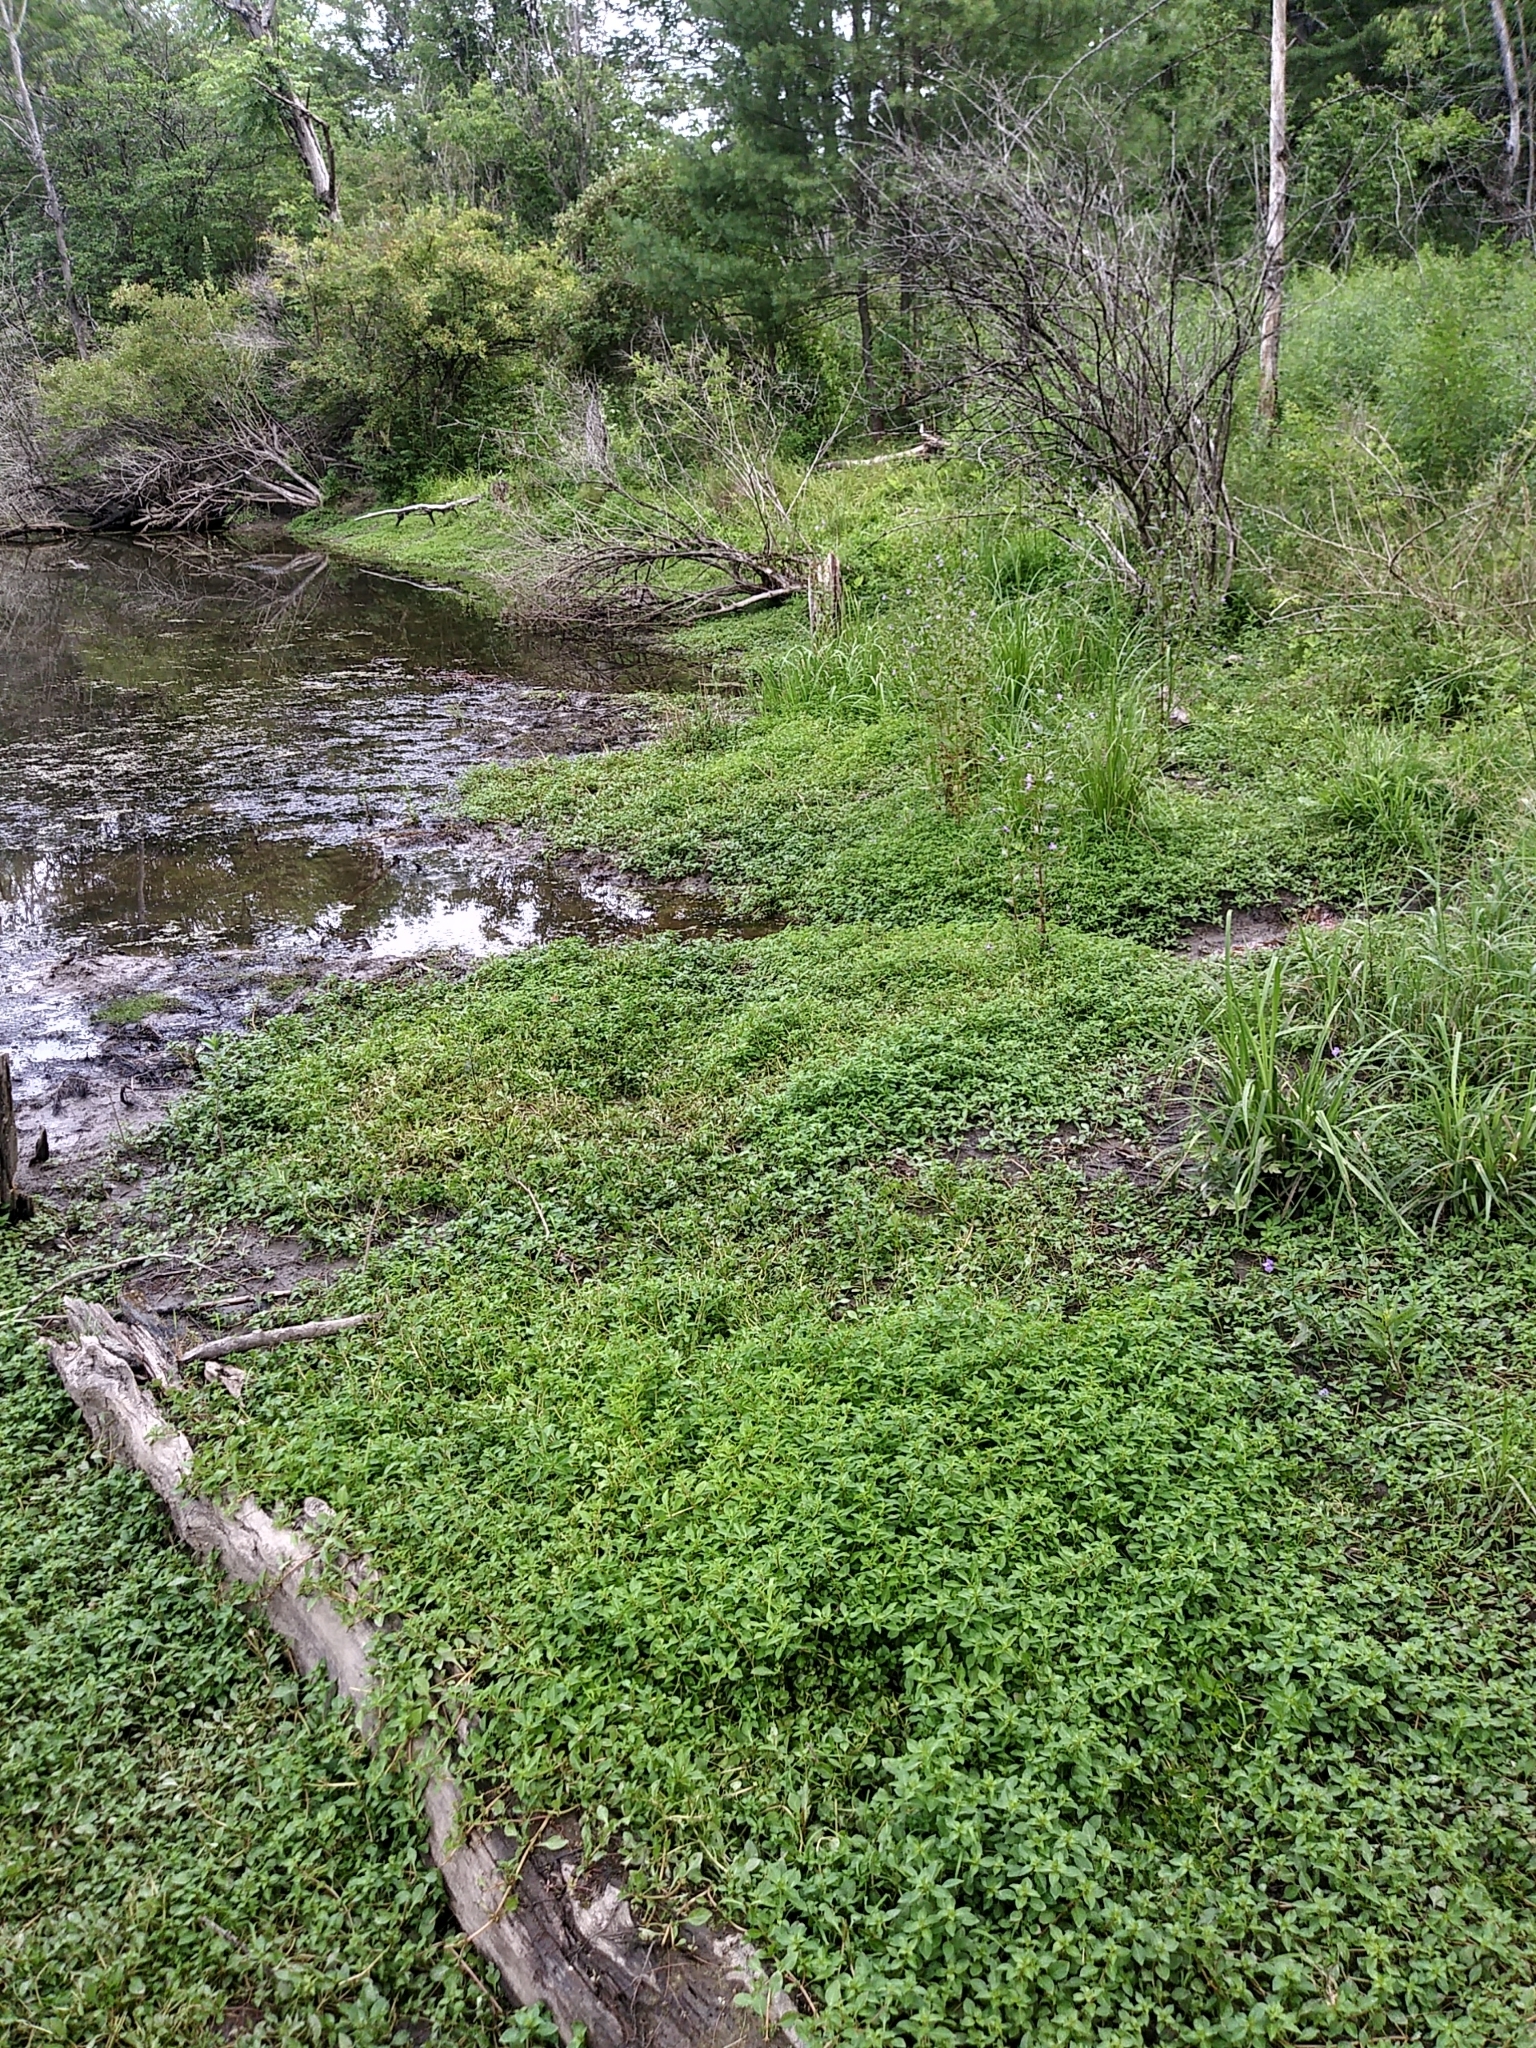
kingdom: Plantae
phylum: Tracheophyta
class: Magnoliopsida
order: Myrtales
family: Onagraceae
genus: Ludwigia
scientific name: Ludwigia palustris
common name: Hampshire-purslane
